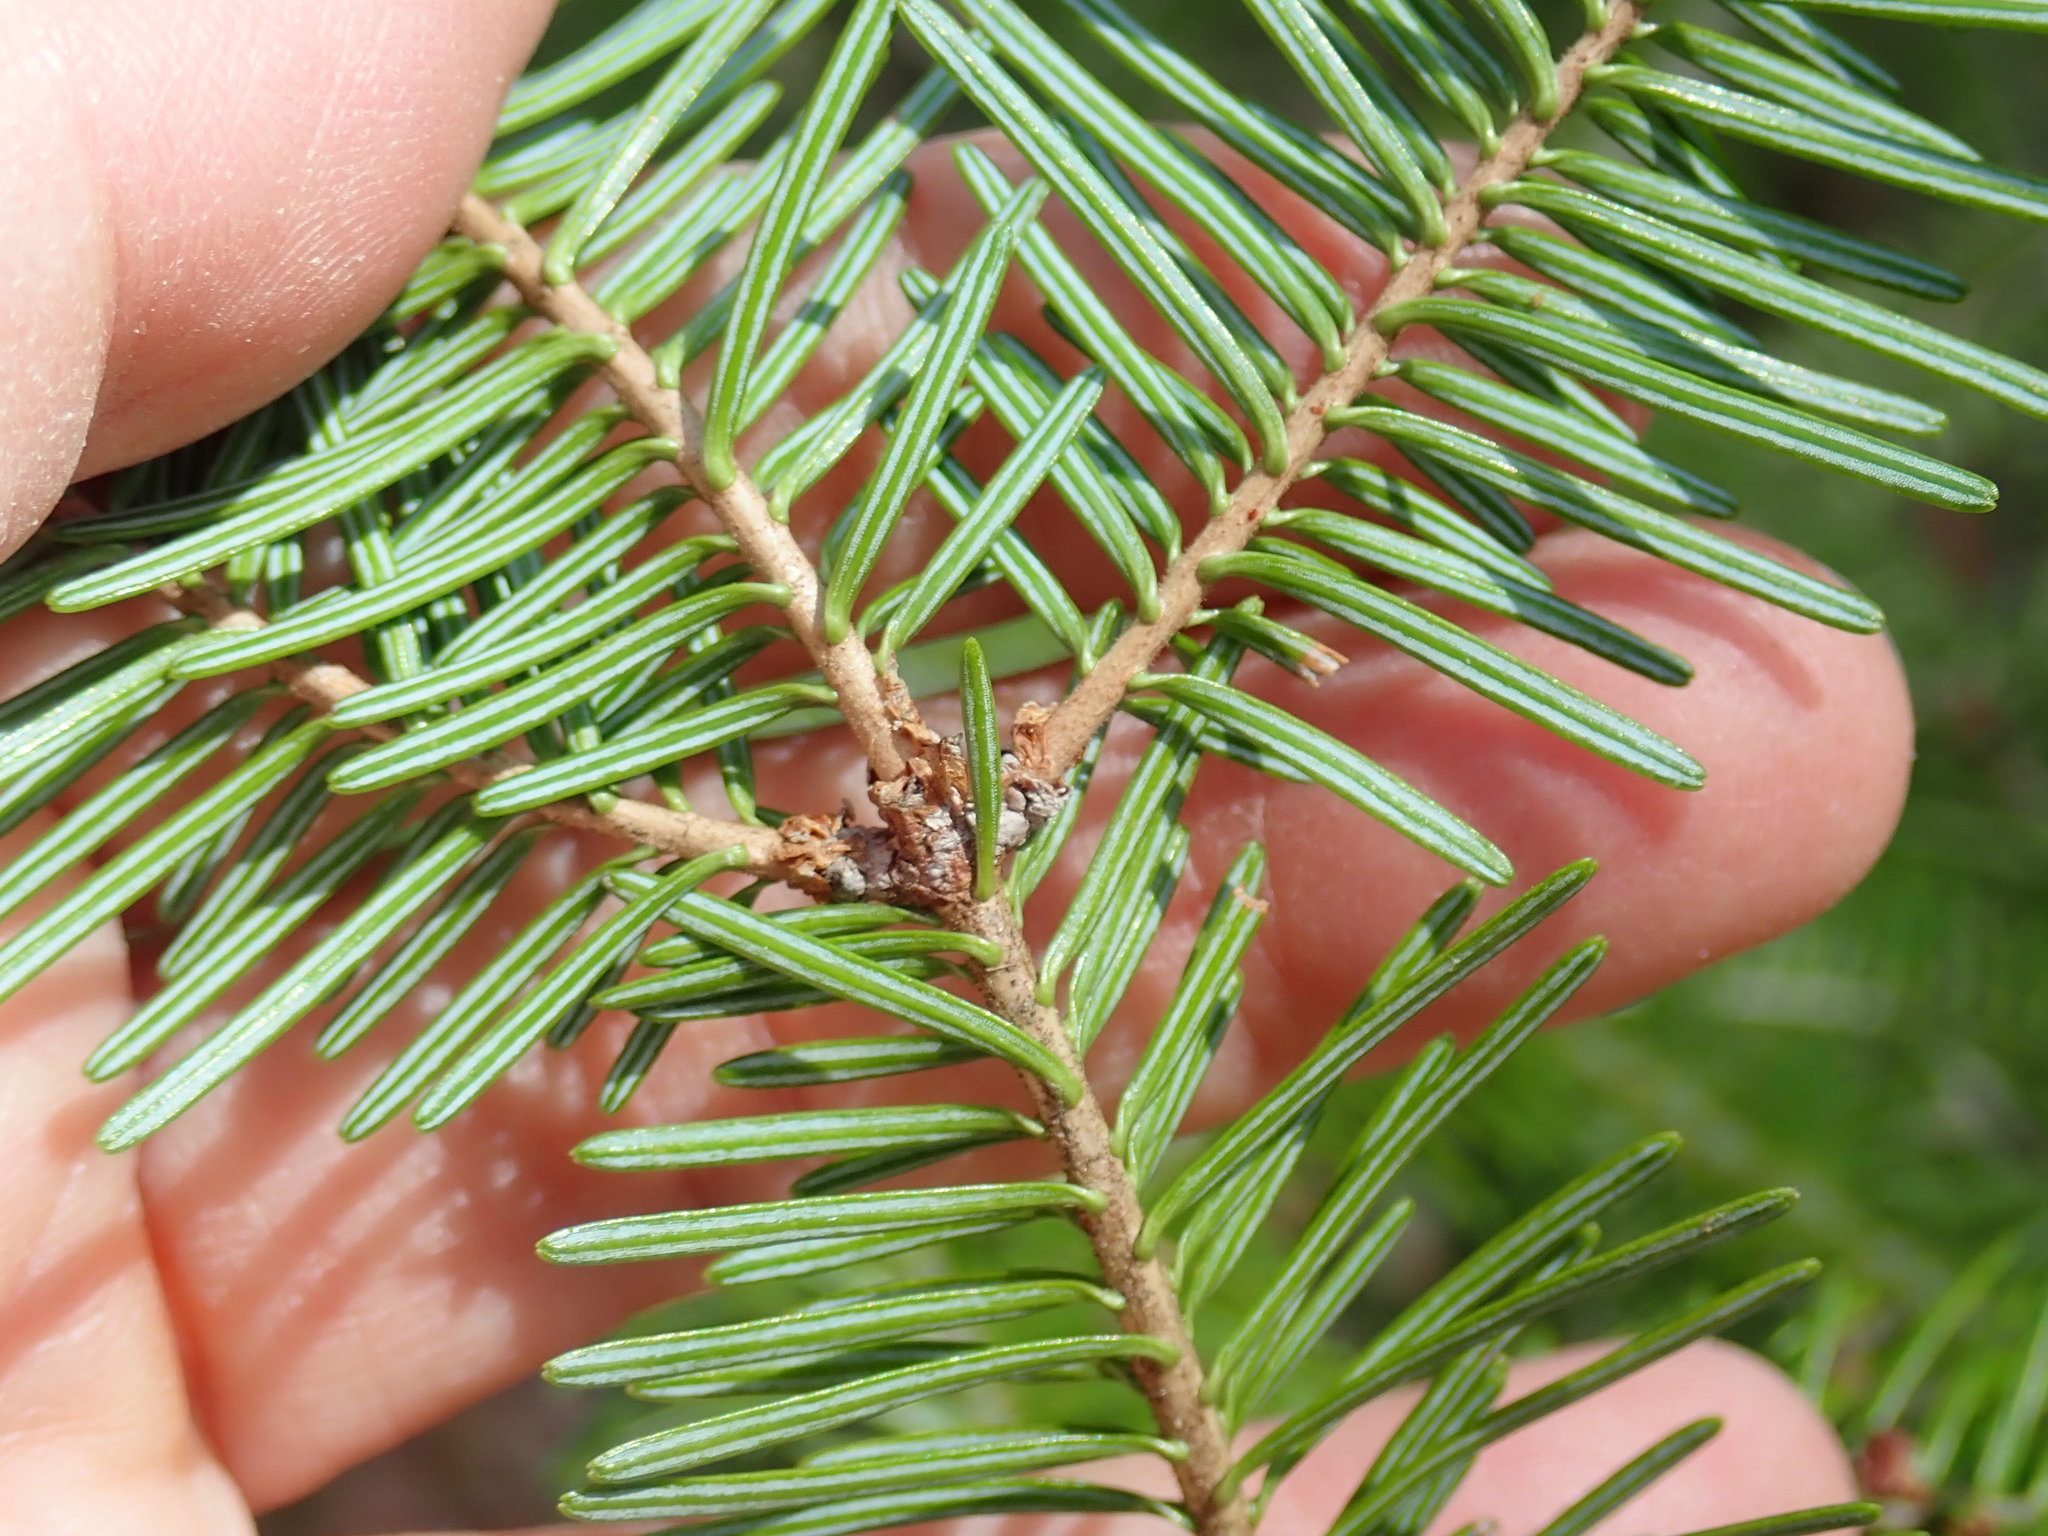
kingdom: Plantae
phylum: Tracheophyta
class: Pinopsida
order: Pinales
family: Pinaceae
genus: Abies
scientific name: Abies balsamea
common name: Balsam fir
